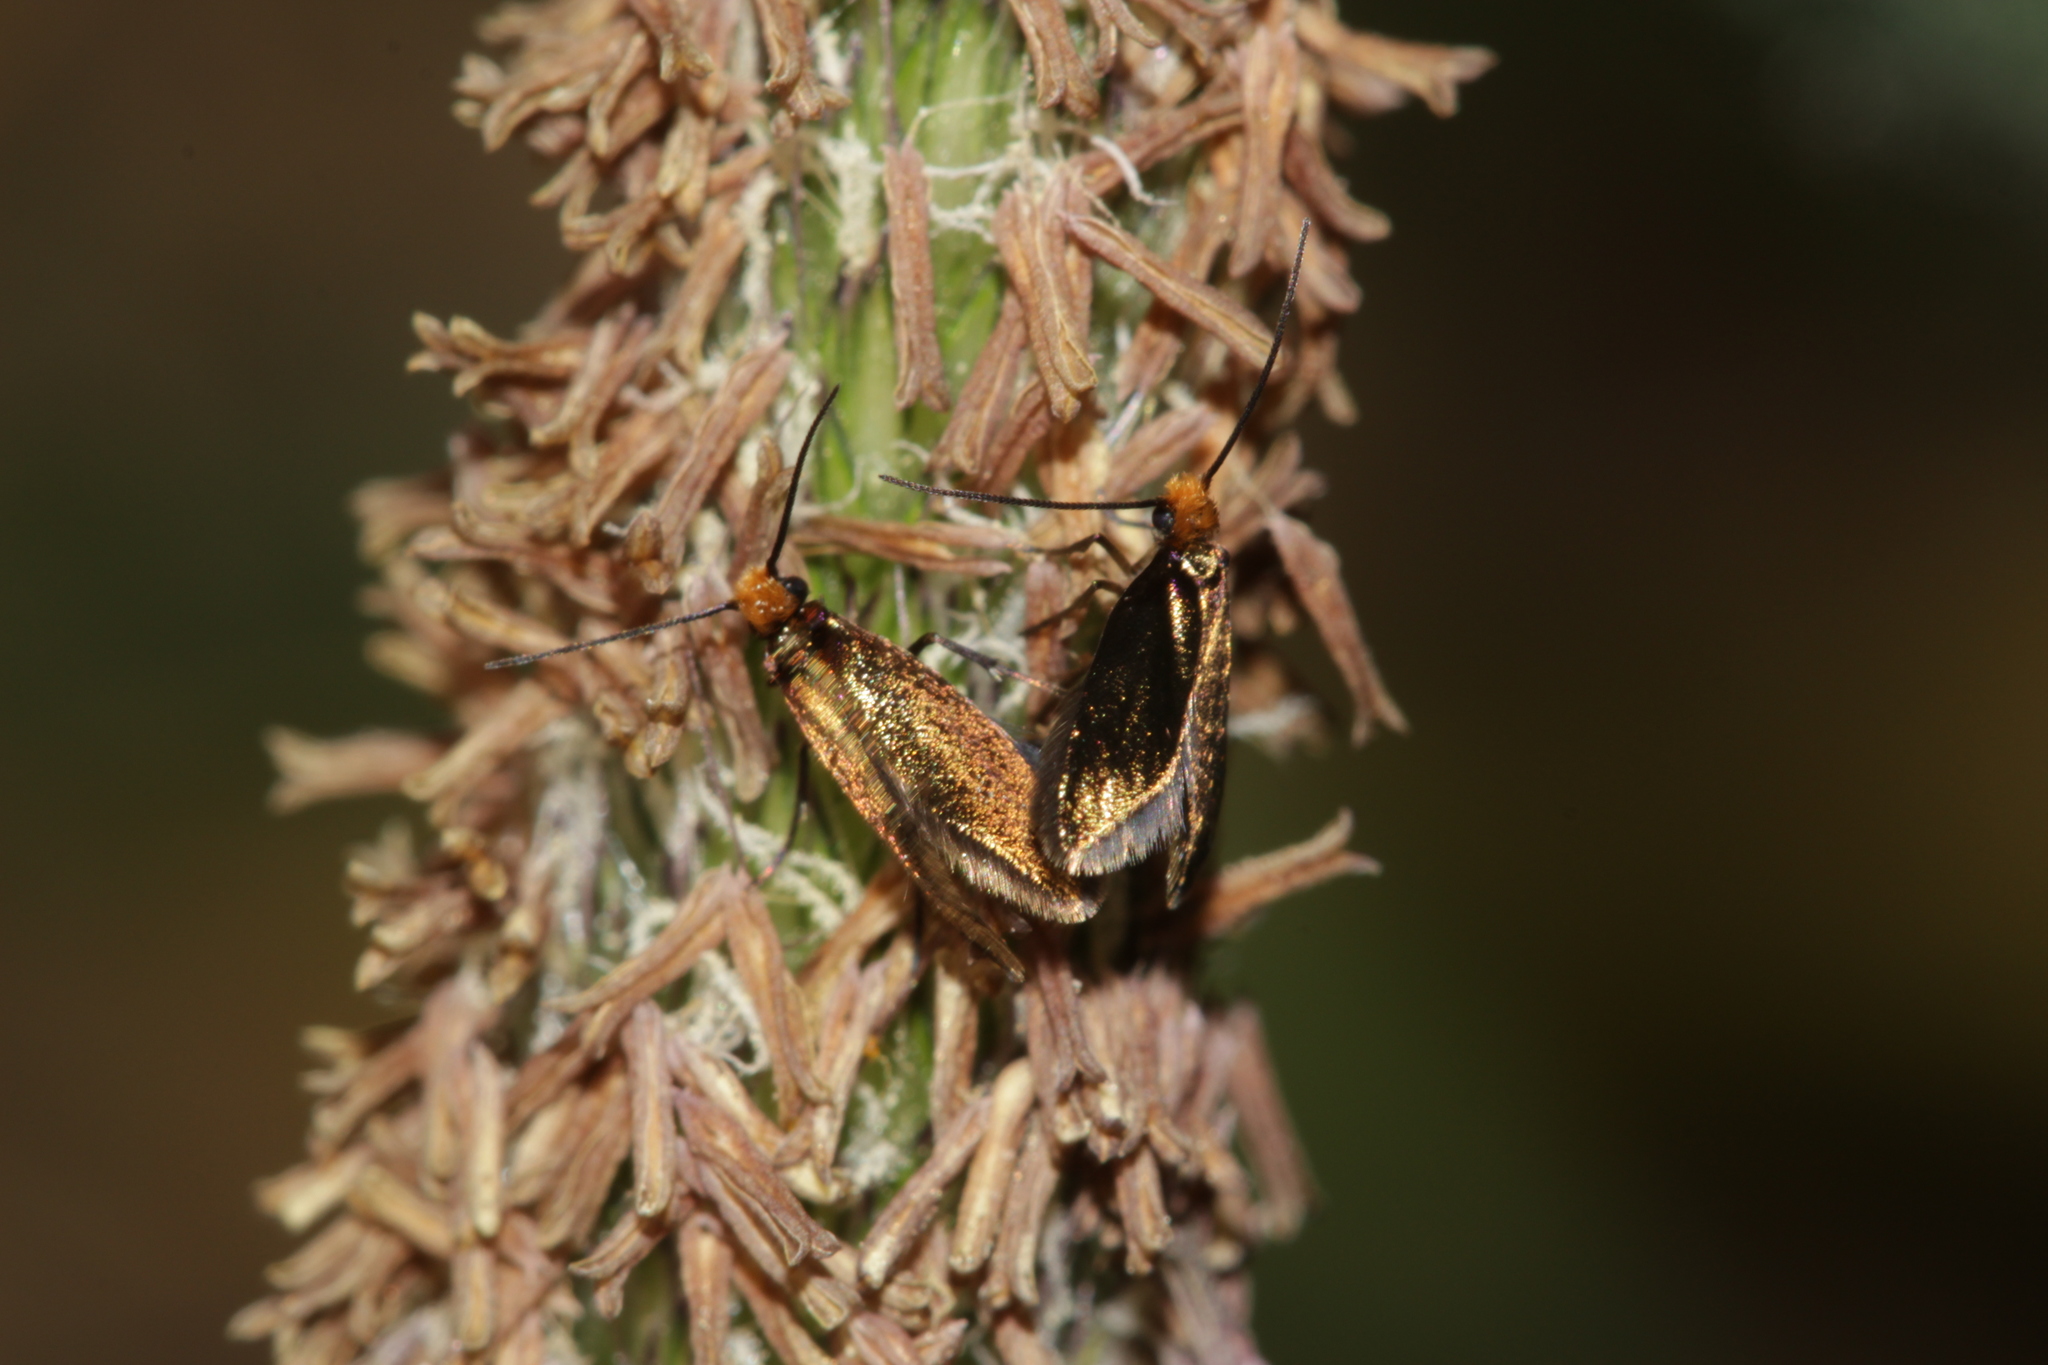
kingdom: Animalia
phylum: Arthropoda
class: Insecta
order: Lepidoptera
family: Micropterigidae
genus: Micropterix
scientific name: Micropterix calthella
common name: Plain gold
